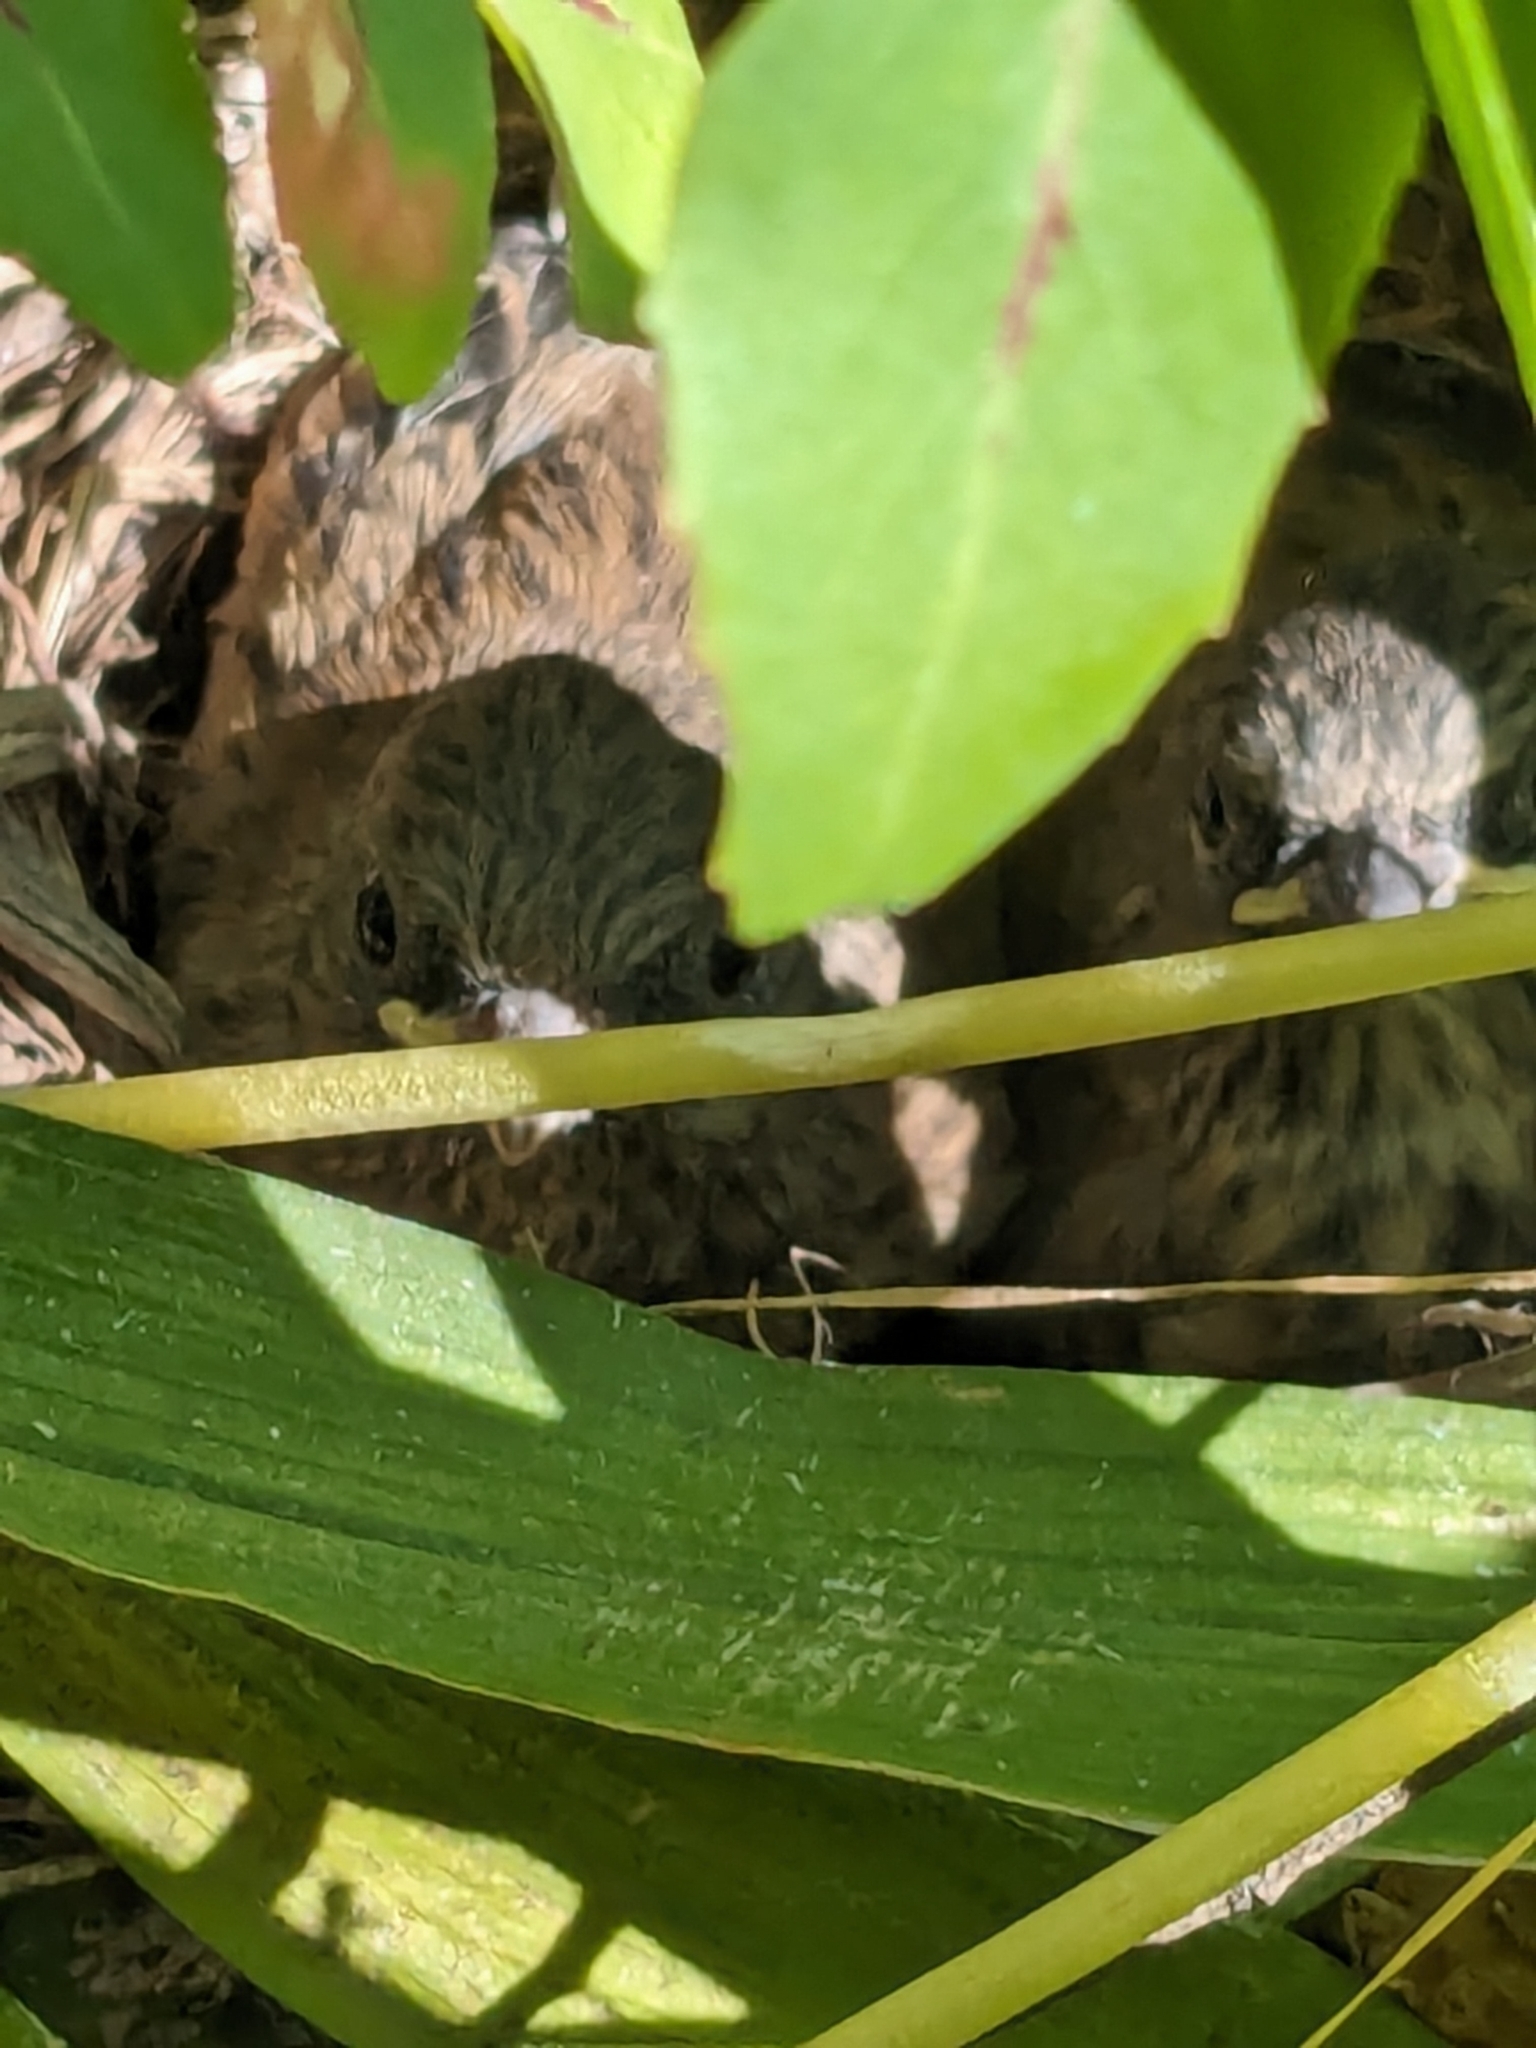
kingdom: Animalia
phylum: Chordata
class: Aves
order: Passeriformes
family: Passerellidae
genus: Junco
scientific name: Junco hyemalis
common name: Dark-eyed junco
